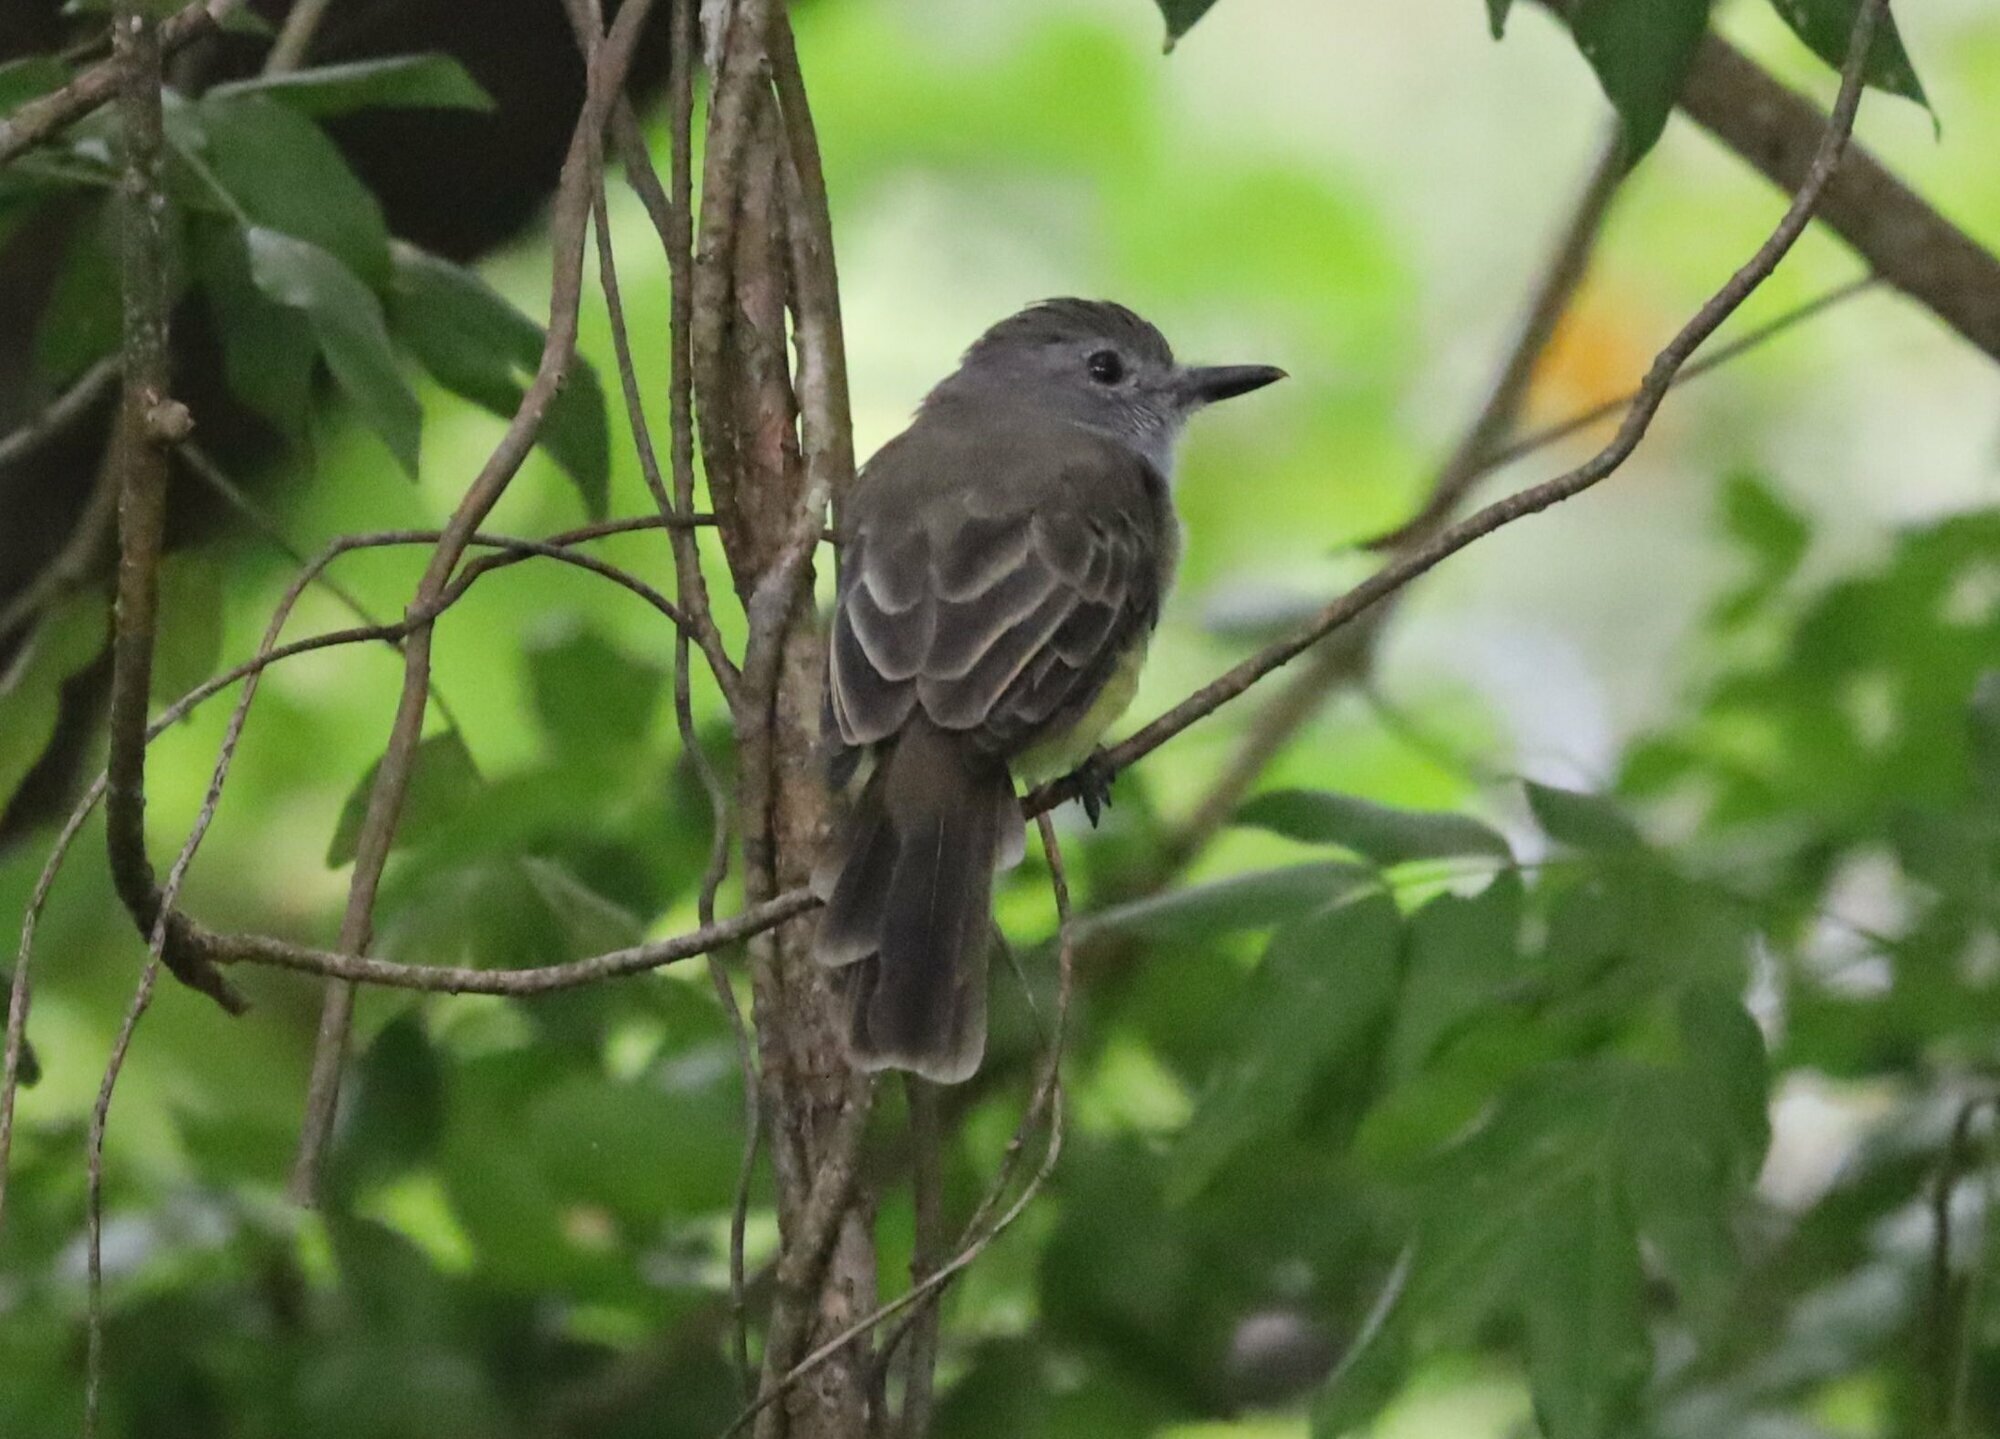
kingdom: Animalia
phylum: Chordata
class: Aves
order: Passeriformes
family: Tyrannidae
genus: Myiarchus
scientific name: Myiarchus panamensis
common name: Panama flycatcher
